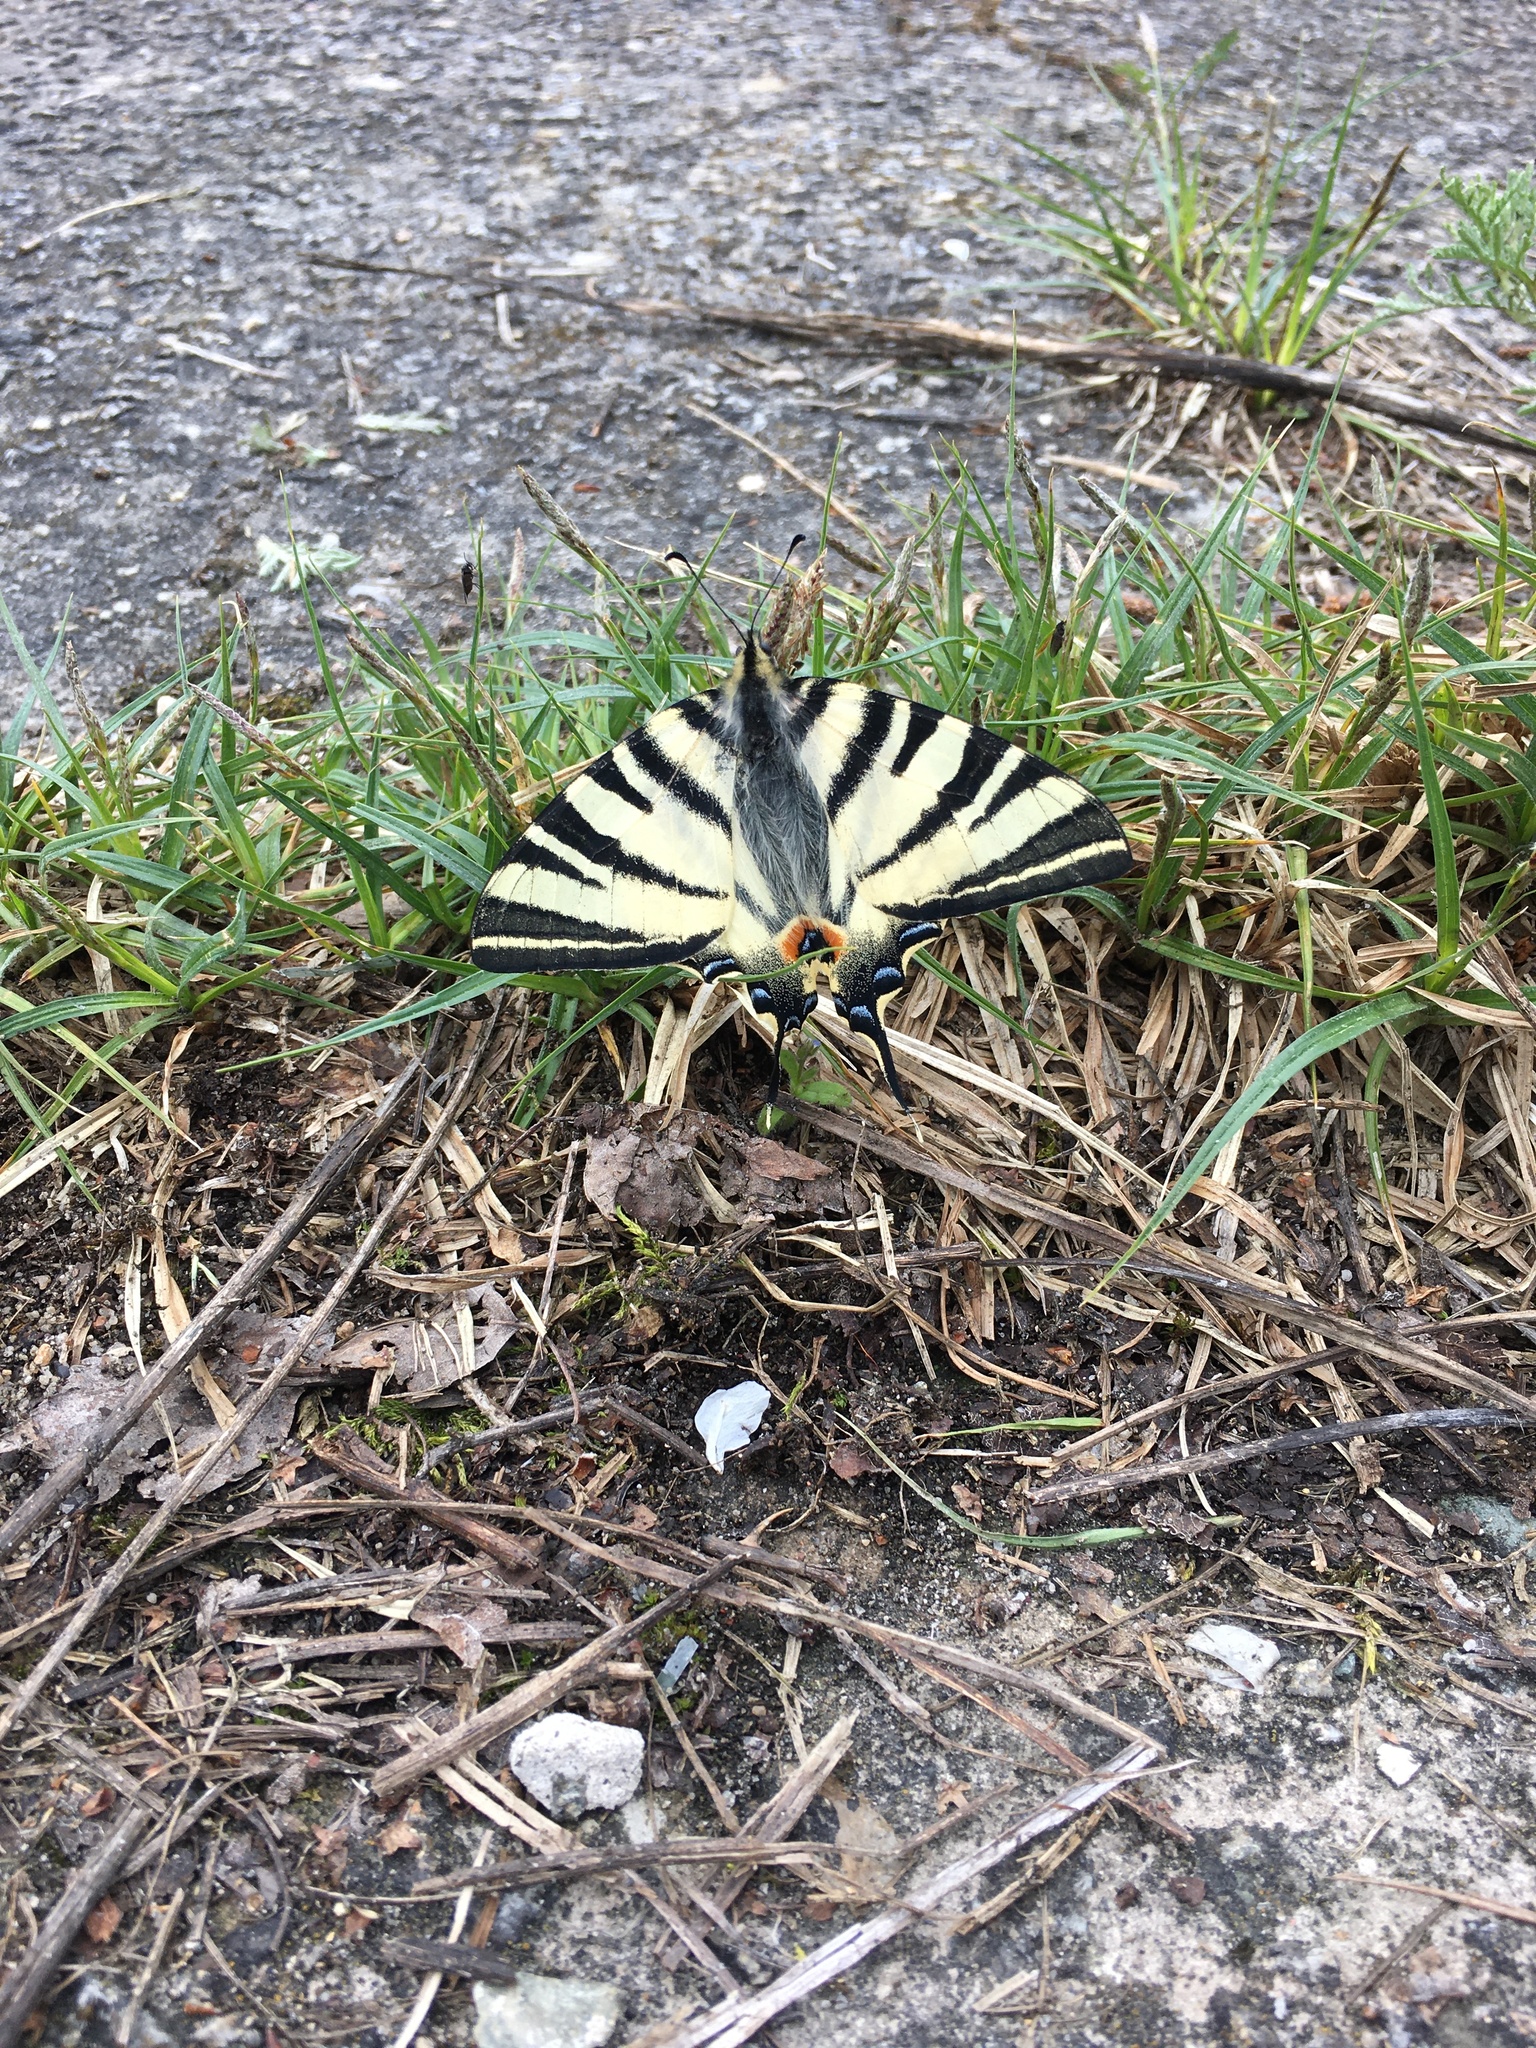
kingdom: Animalia
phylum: Arthropoda
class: Insecta
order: Lepidoptera
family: Papilionidae
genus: Iphiclides
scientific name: Iphiclides podalirius
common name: Scarce swallowtail
